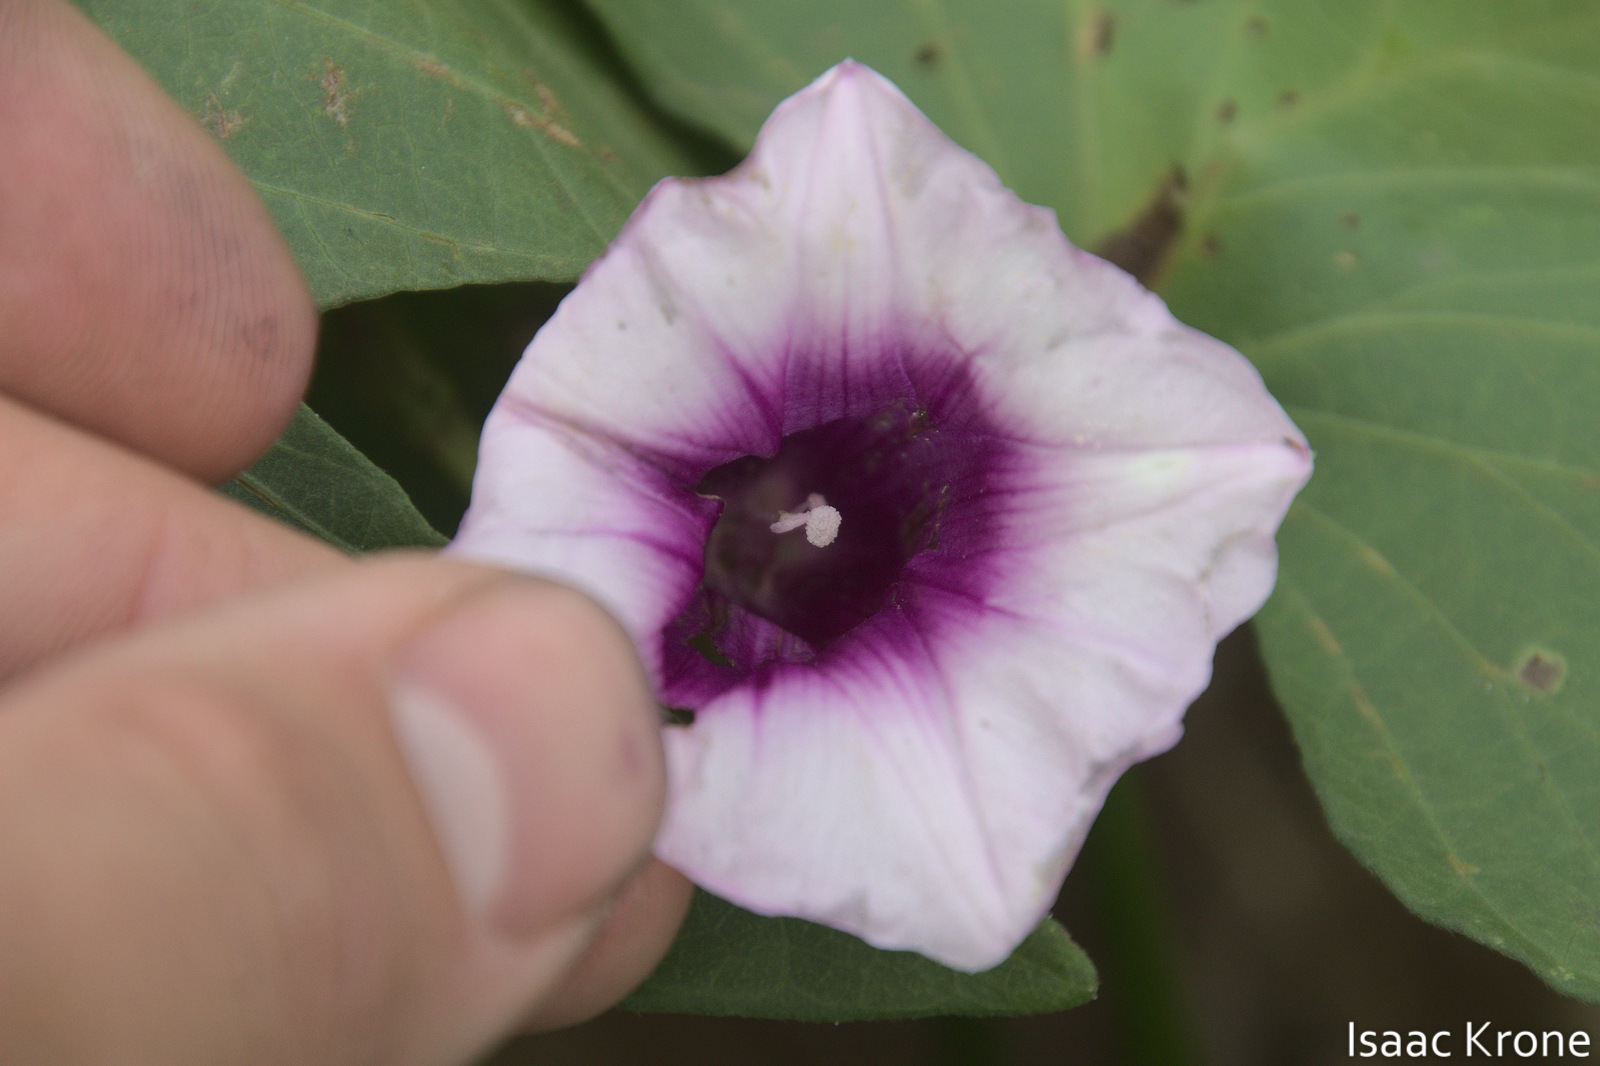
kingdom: Plantae
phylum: Tracheophyta
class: Magnoliopsida
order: Solanales
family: Convolvulaceae
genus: Ipomoea
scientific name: Ipomoea batatas
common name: Sweet-potato
